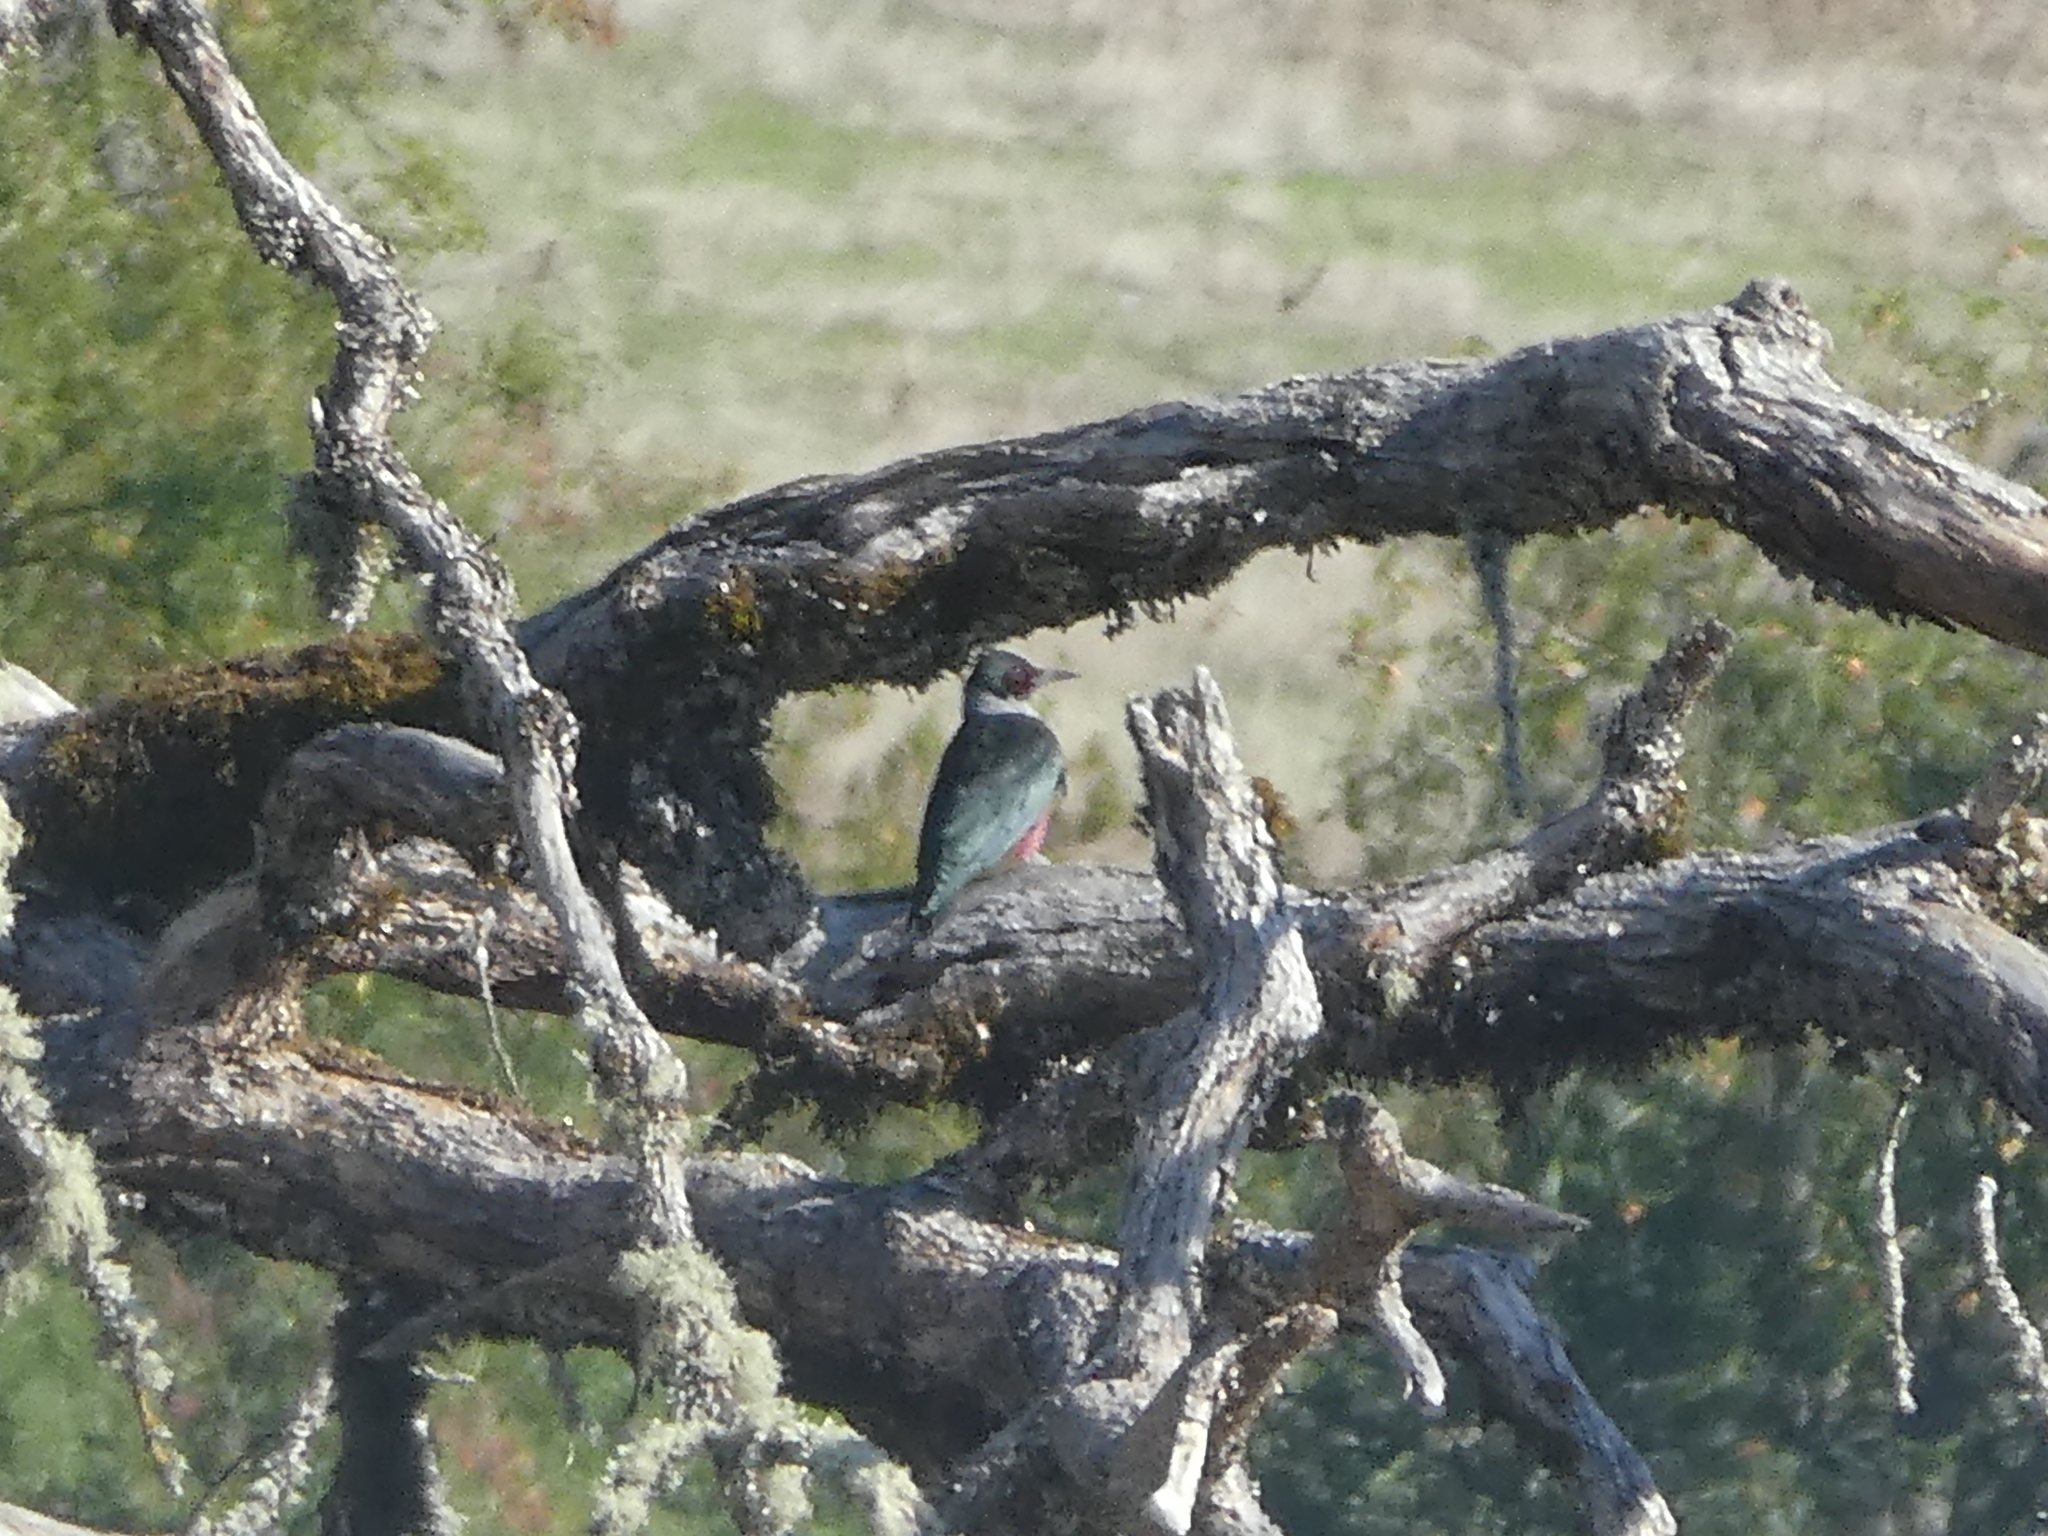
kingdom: Animalia
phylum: Chordata
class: Aves
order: Piciformes
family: Picidae
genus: Melanerpes
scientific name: Melanerpes lewis
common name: Lewis's woodpecker
